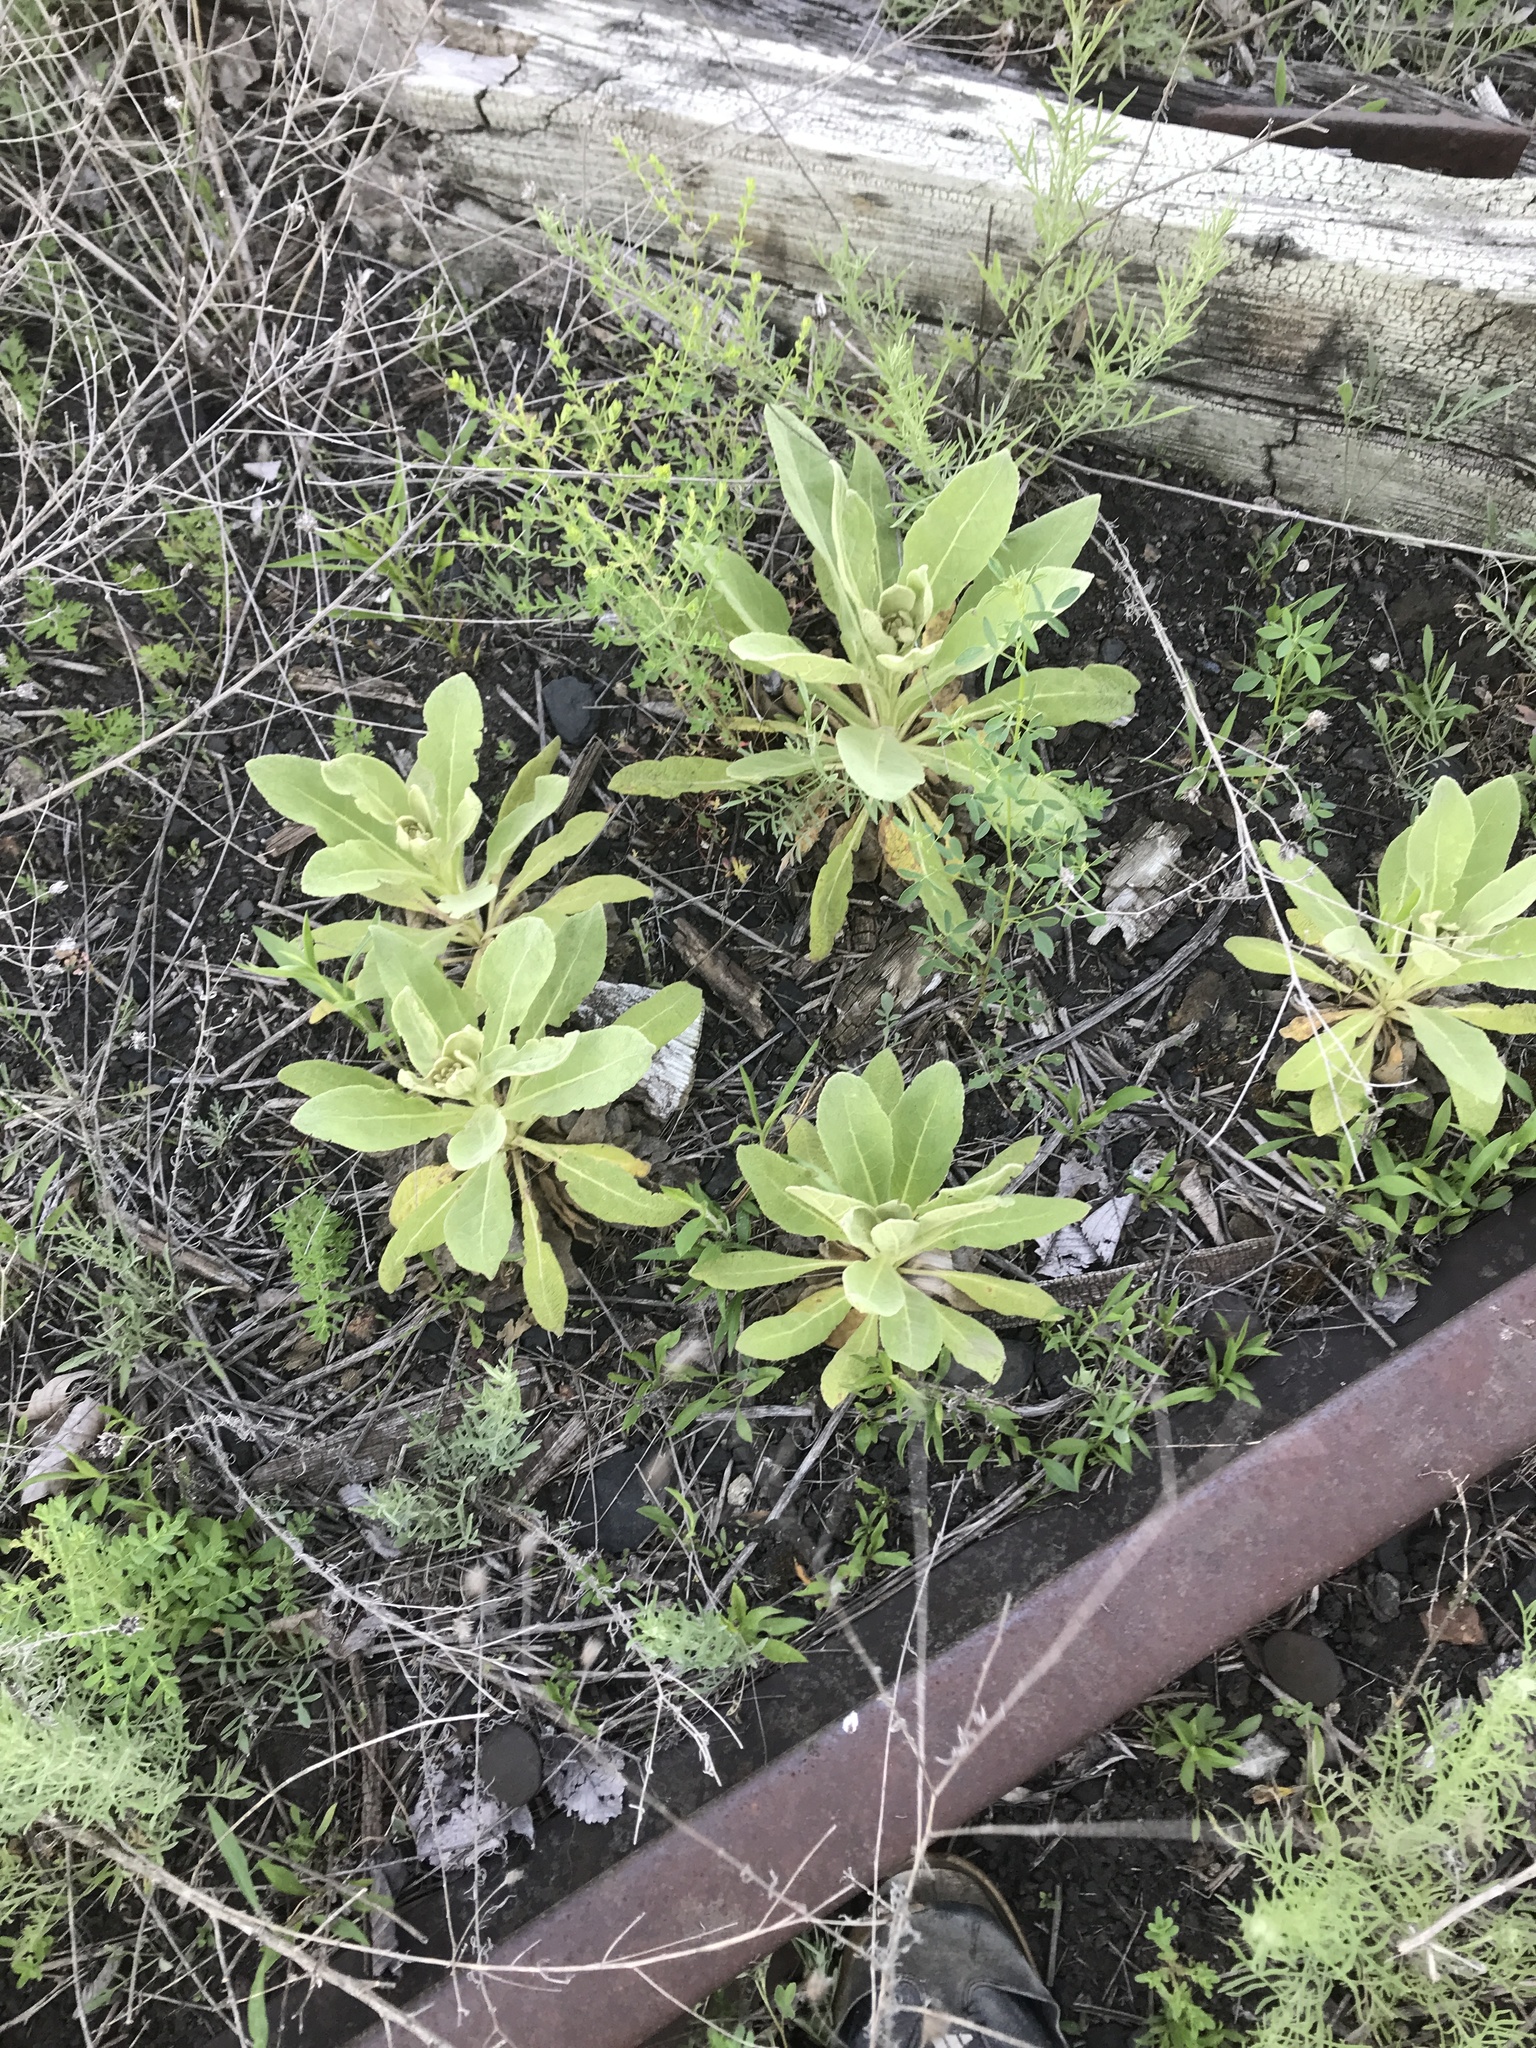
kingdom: Plantae
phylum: Tracheophyta
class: Magnoliopsida
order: Lamiales
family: Scrophulariaceae
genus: Verbascum
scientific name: Verbascum thapsus
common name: Common mullein
